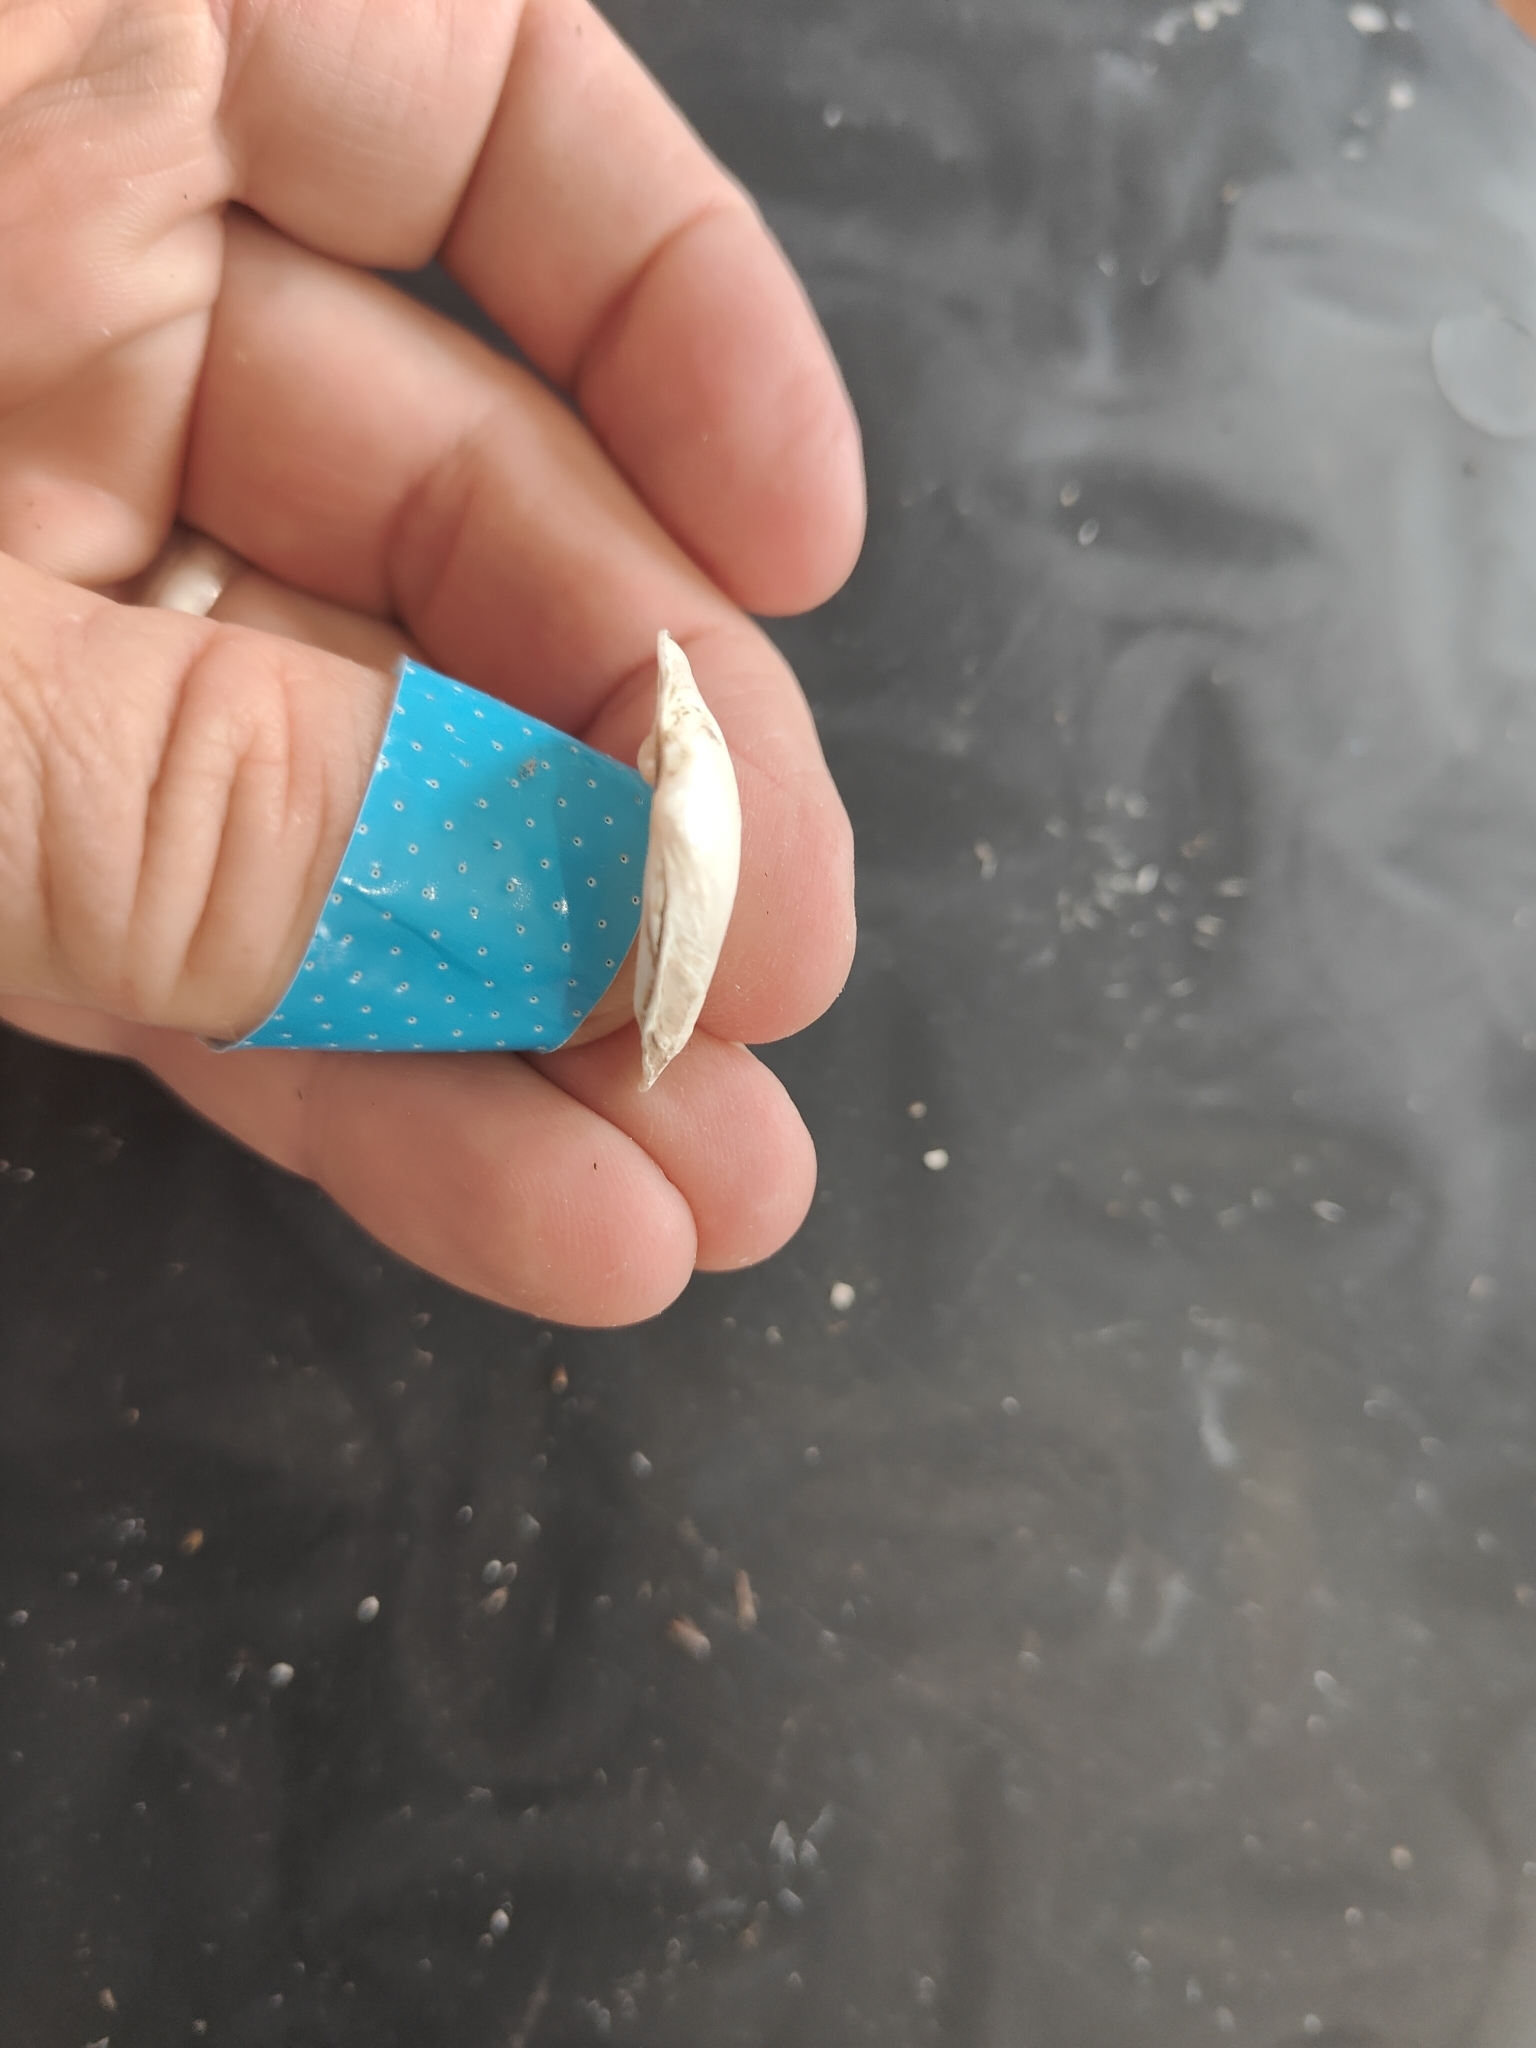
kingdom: Animalia
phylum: Mollusca
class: Bivalvia
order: Unionida
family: Unionidae
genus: Truncilla
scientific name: Truncilla truncata
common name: Deertoe
